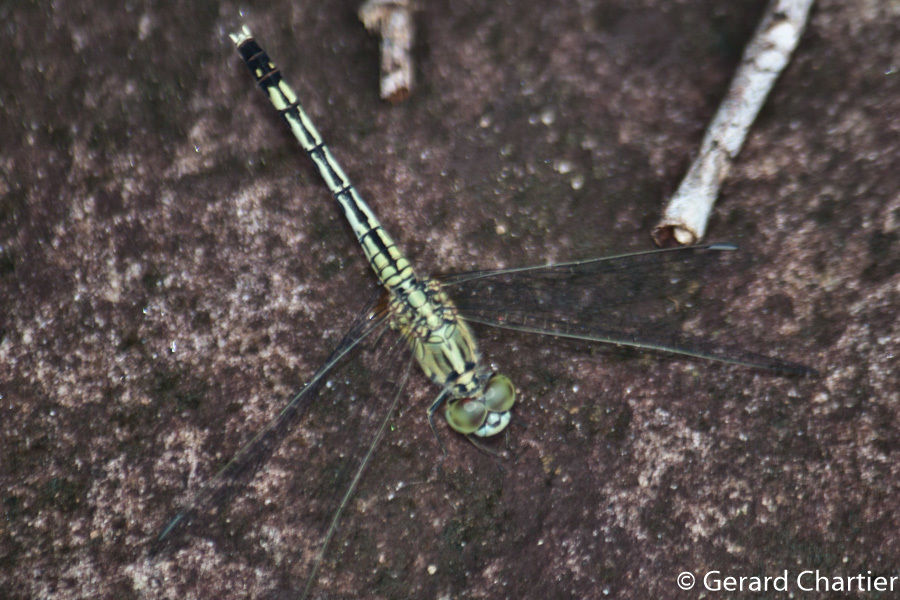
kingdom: Animalia
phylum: Arthropoda
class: Insecta
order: Odonata
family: Libellulidae
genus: Diplacodes
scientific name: Diplacodes trivialis
